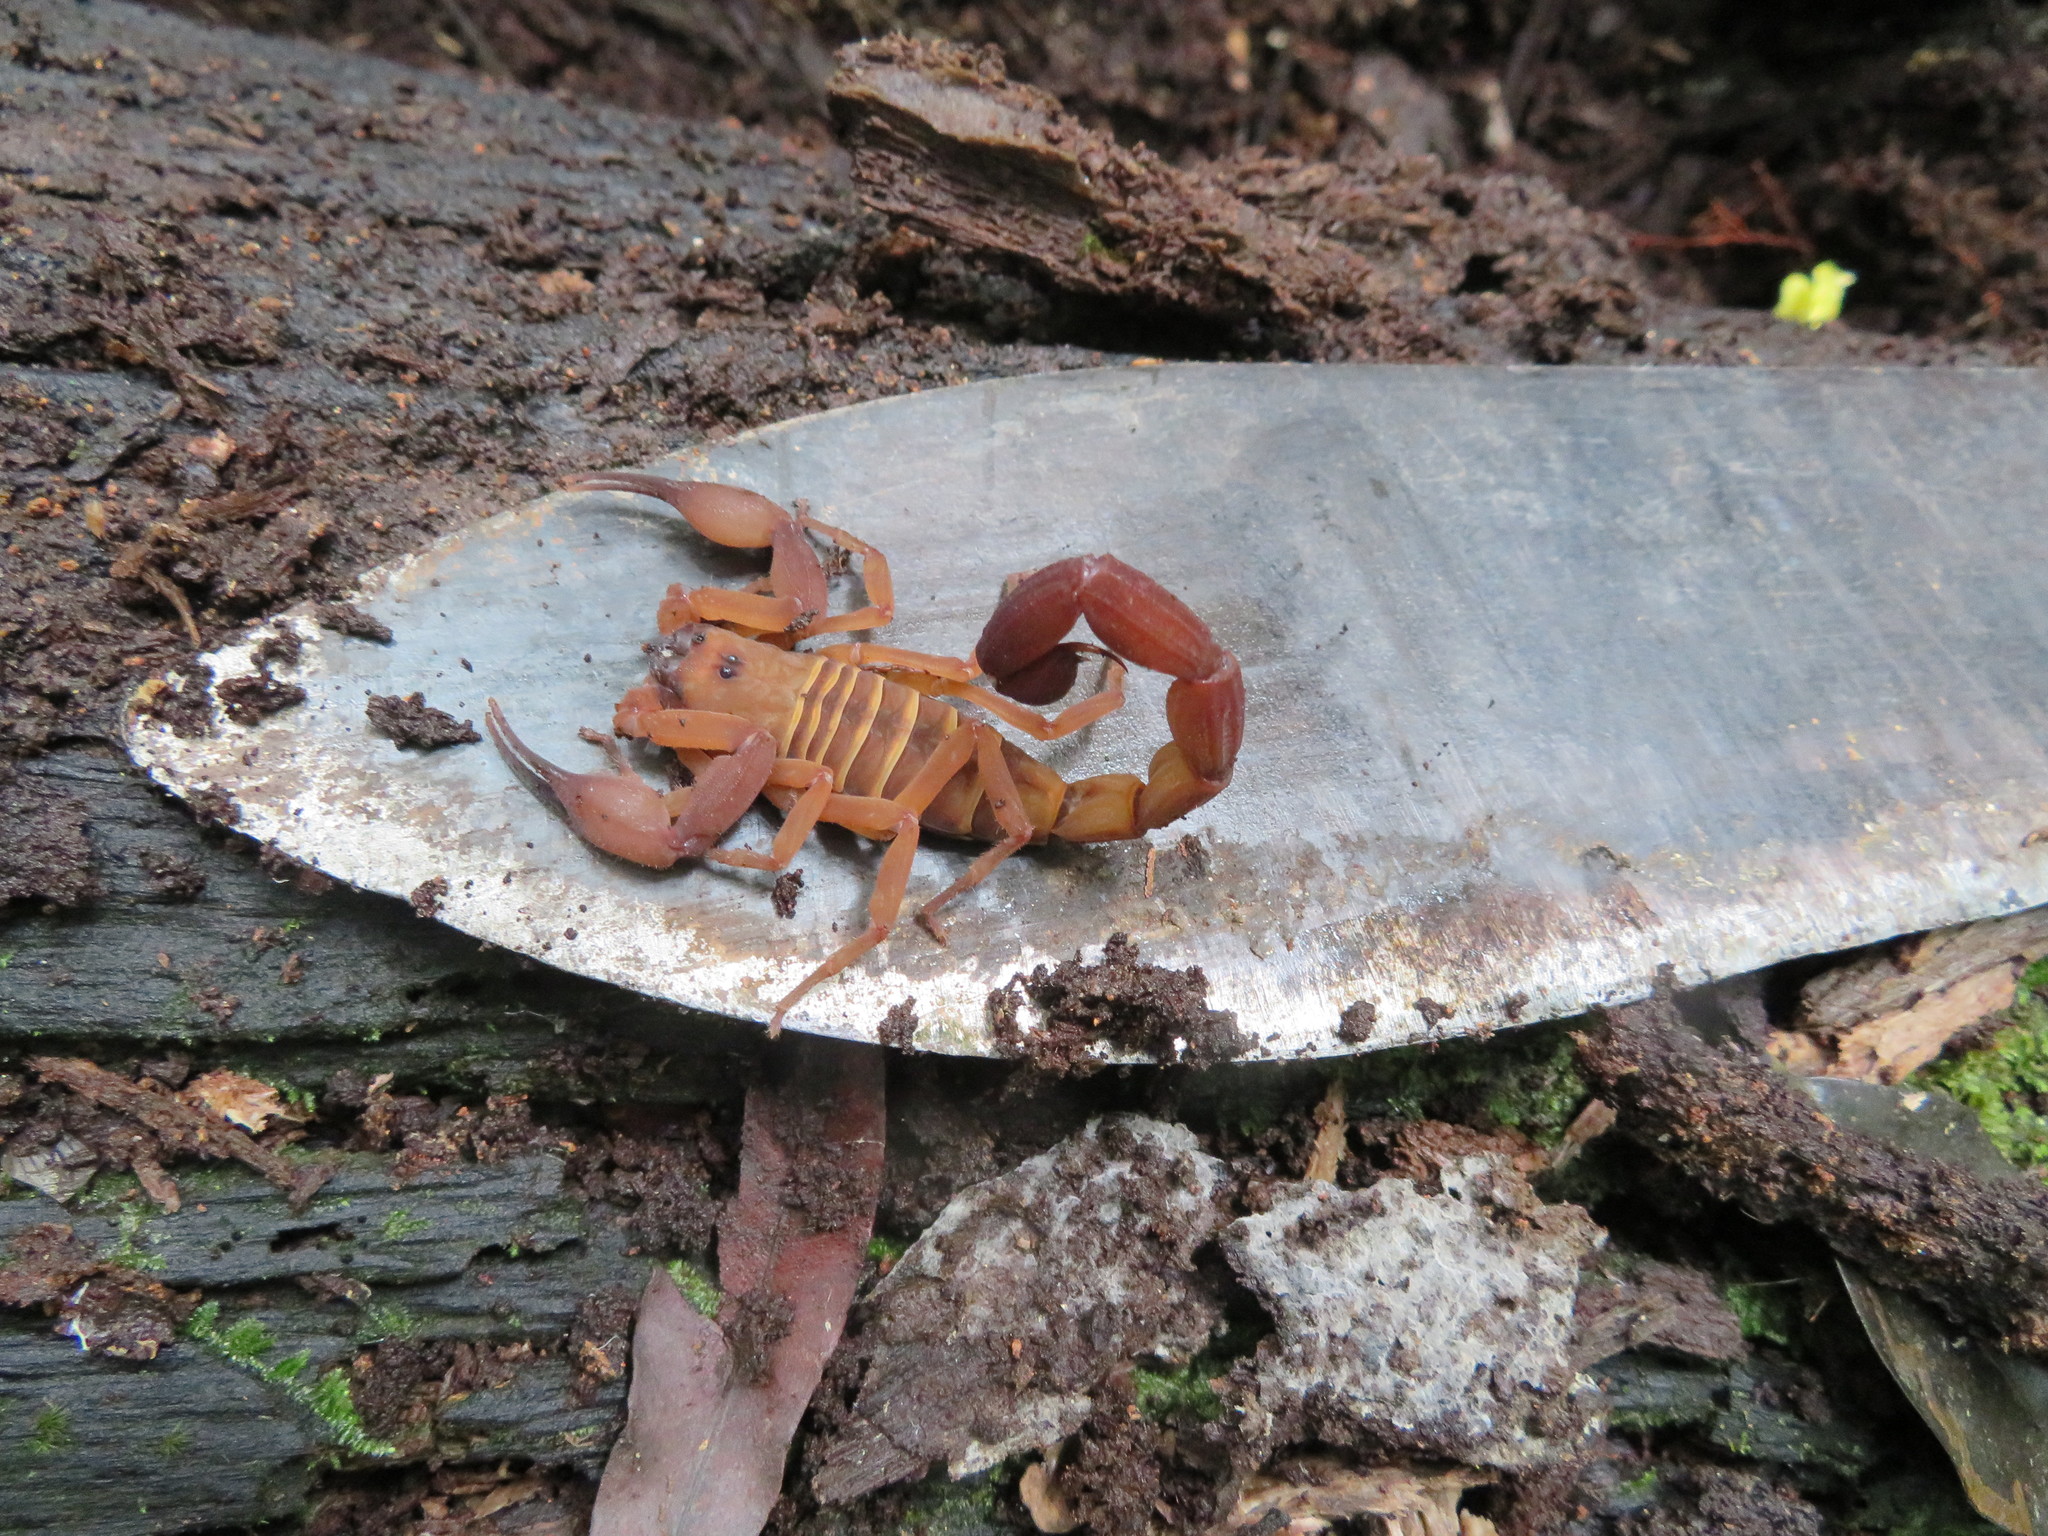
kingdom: Animalia
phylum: Arthropoda
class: Arachnida
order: Scorpiones
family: Buthidae
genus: Babycurus
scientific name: Babycurus gigas
